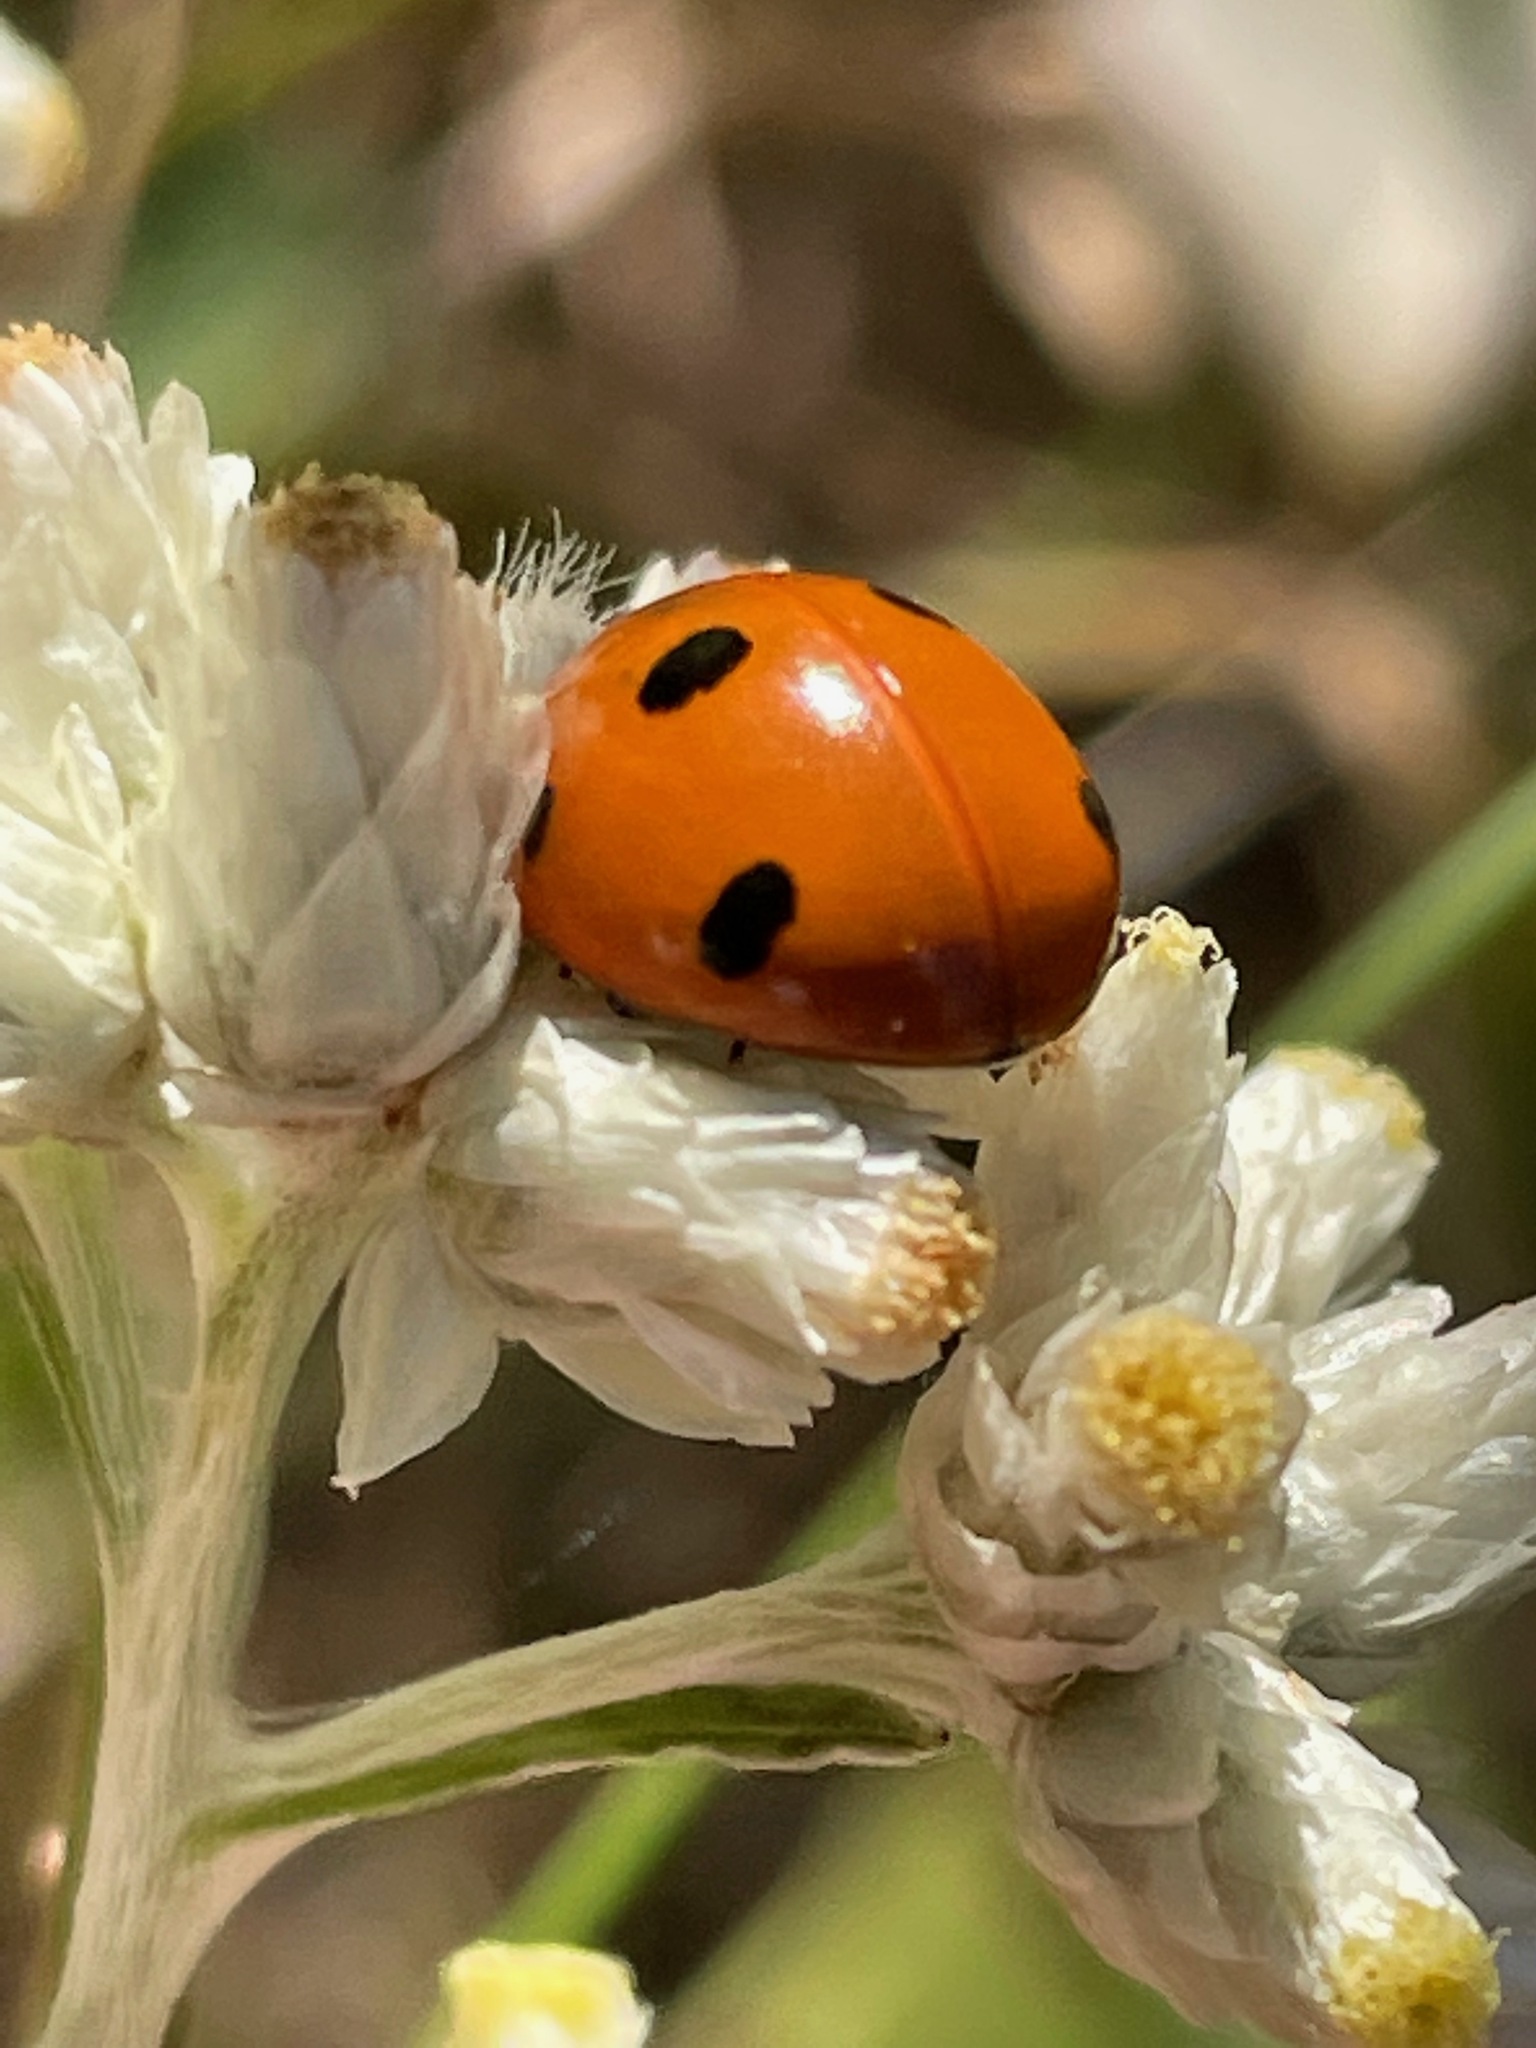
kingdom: Animalia
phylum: Arthropoda
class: Insecta
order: Coleoptera
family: Coccinellidae
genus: Coccinella
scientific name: Coccinella septempunctata
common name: Sevenspotted lady beetle
